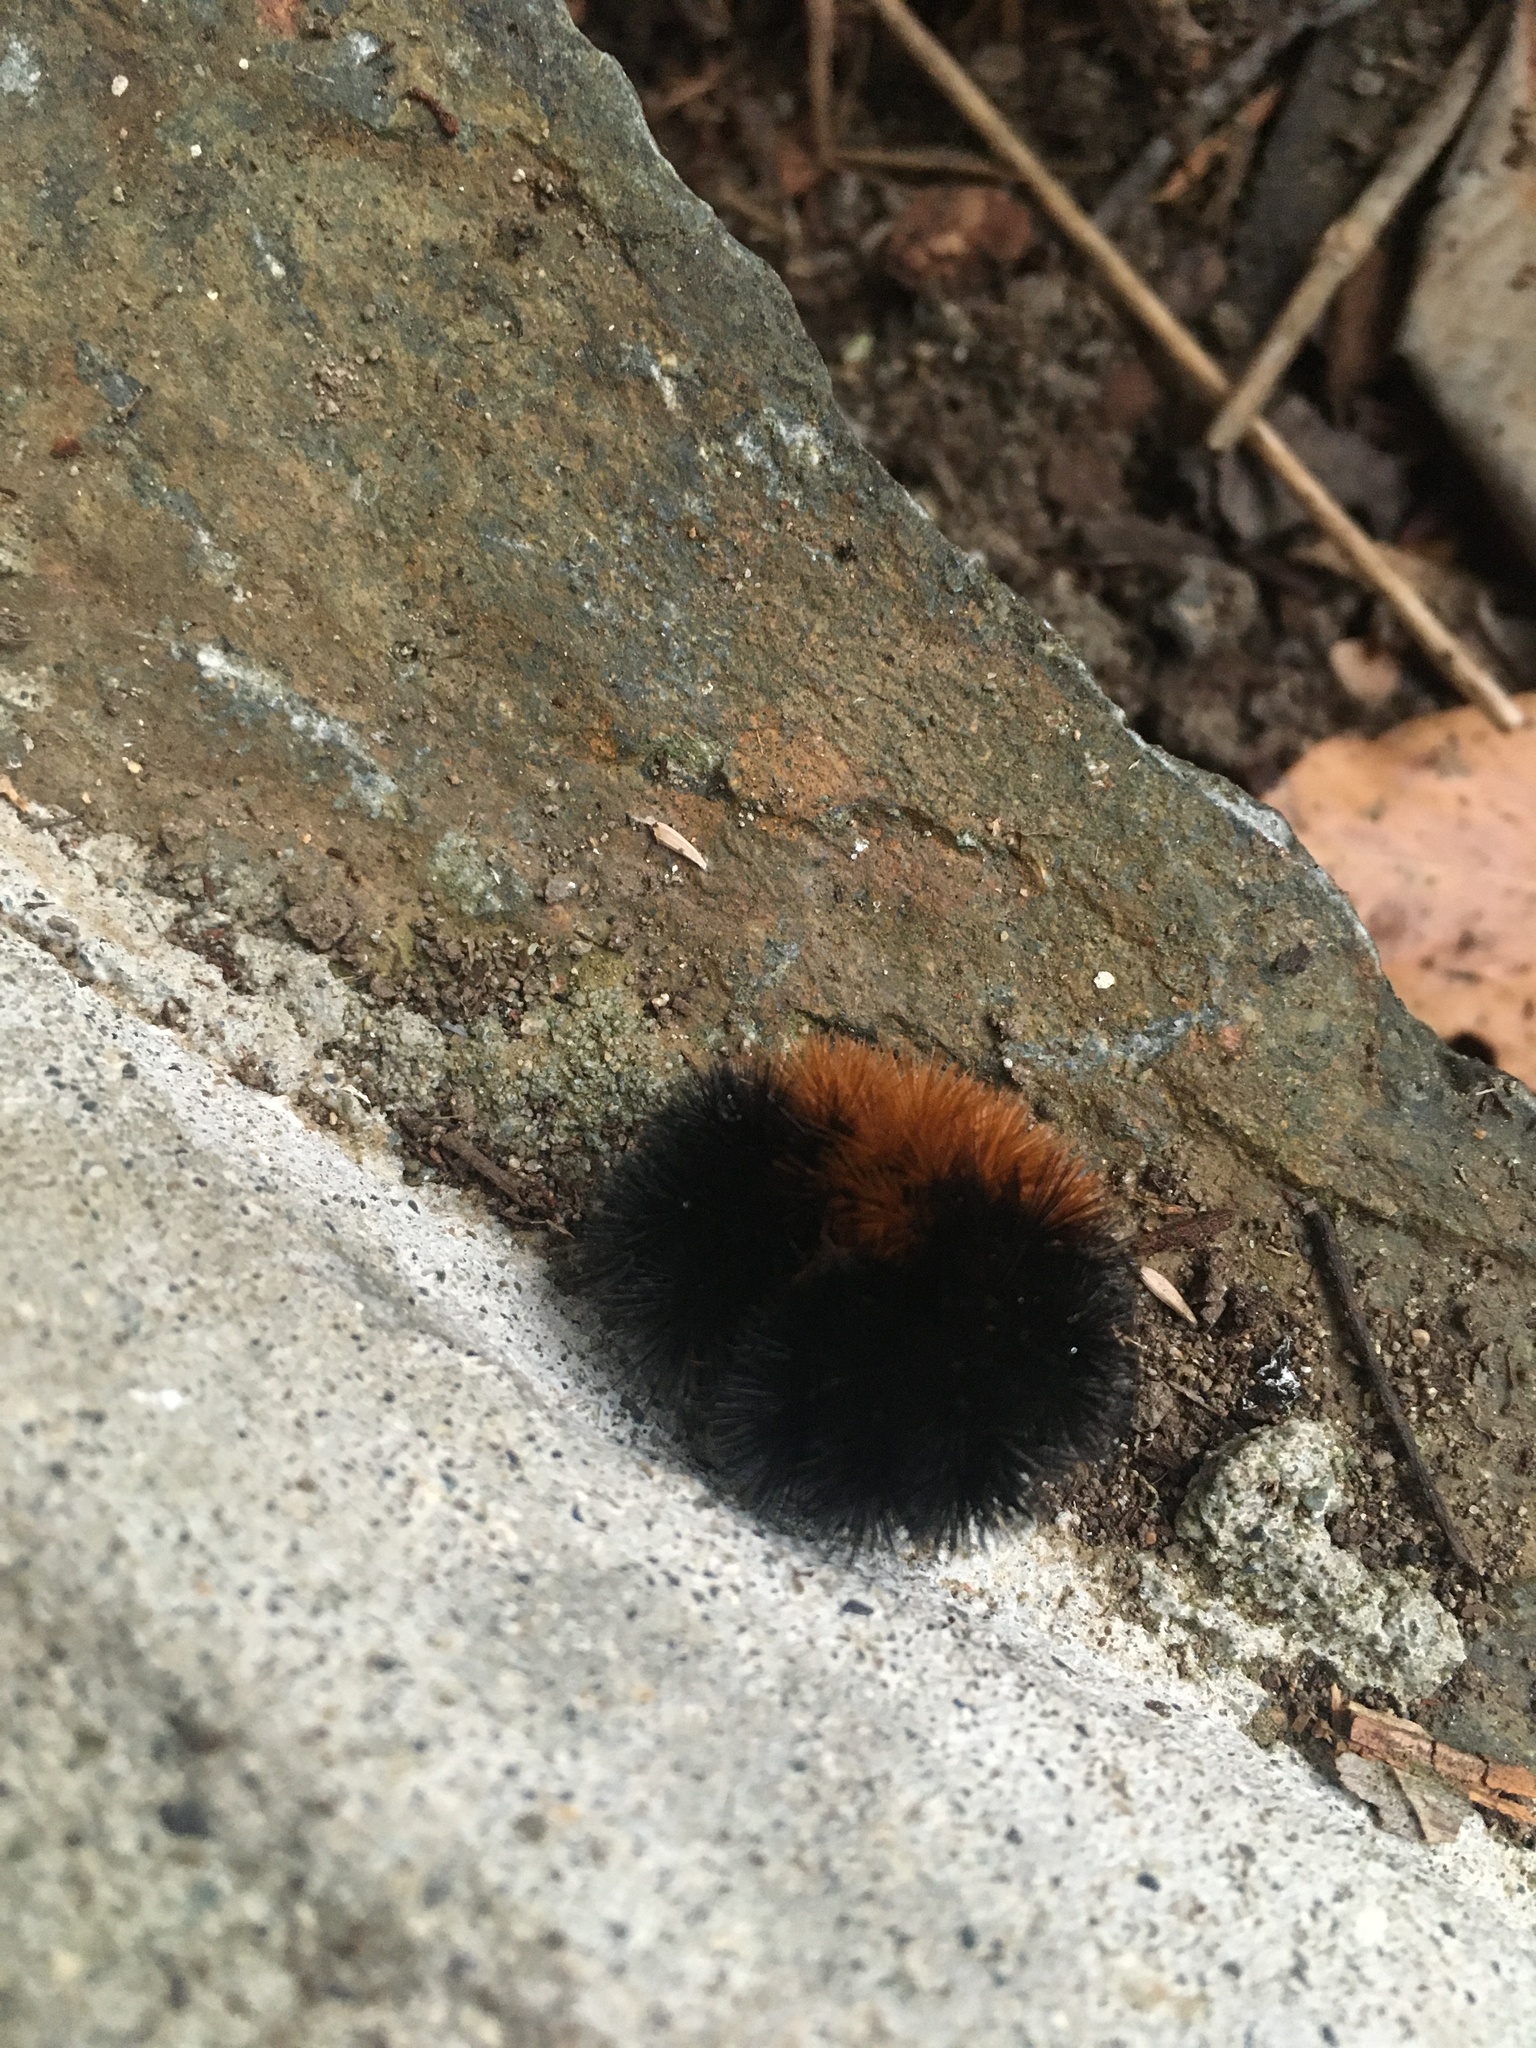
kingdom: Animalia
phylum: Arthropoda
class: Insecta
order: Lepidoptera
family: Erebidae
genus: Pyrrharctia
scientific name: Pyrrharctia isabella
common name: Isabella tiger moth
